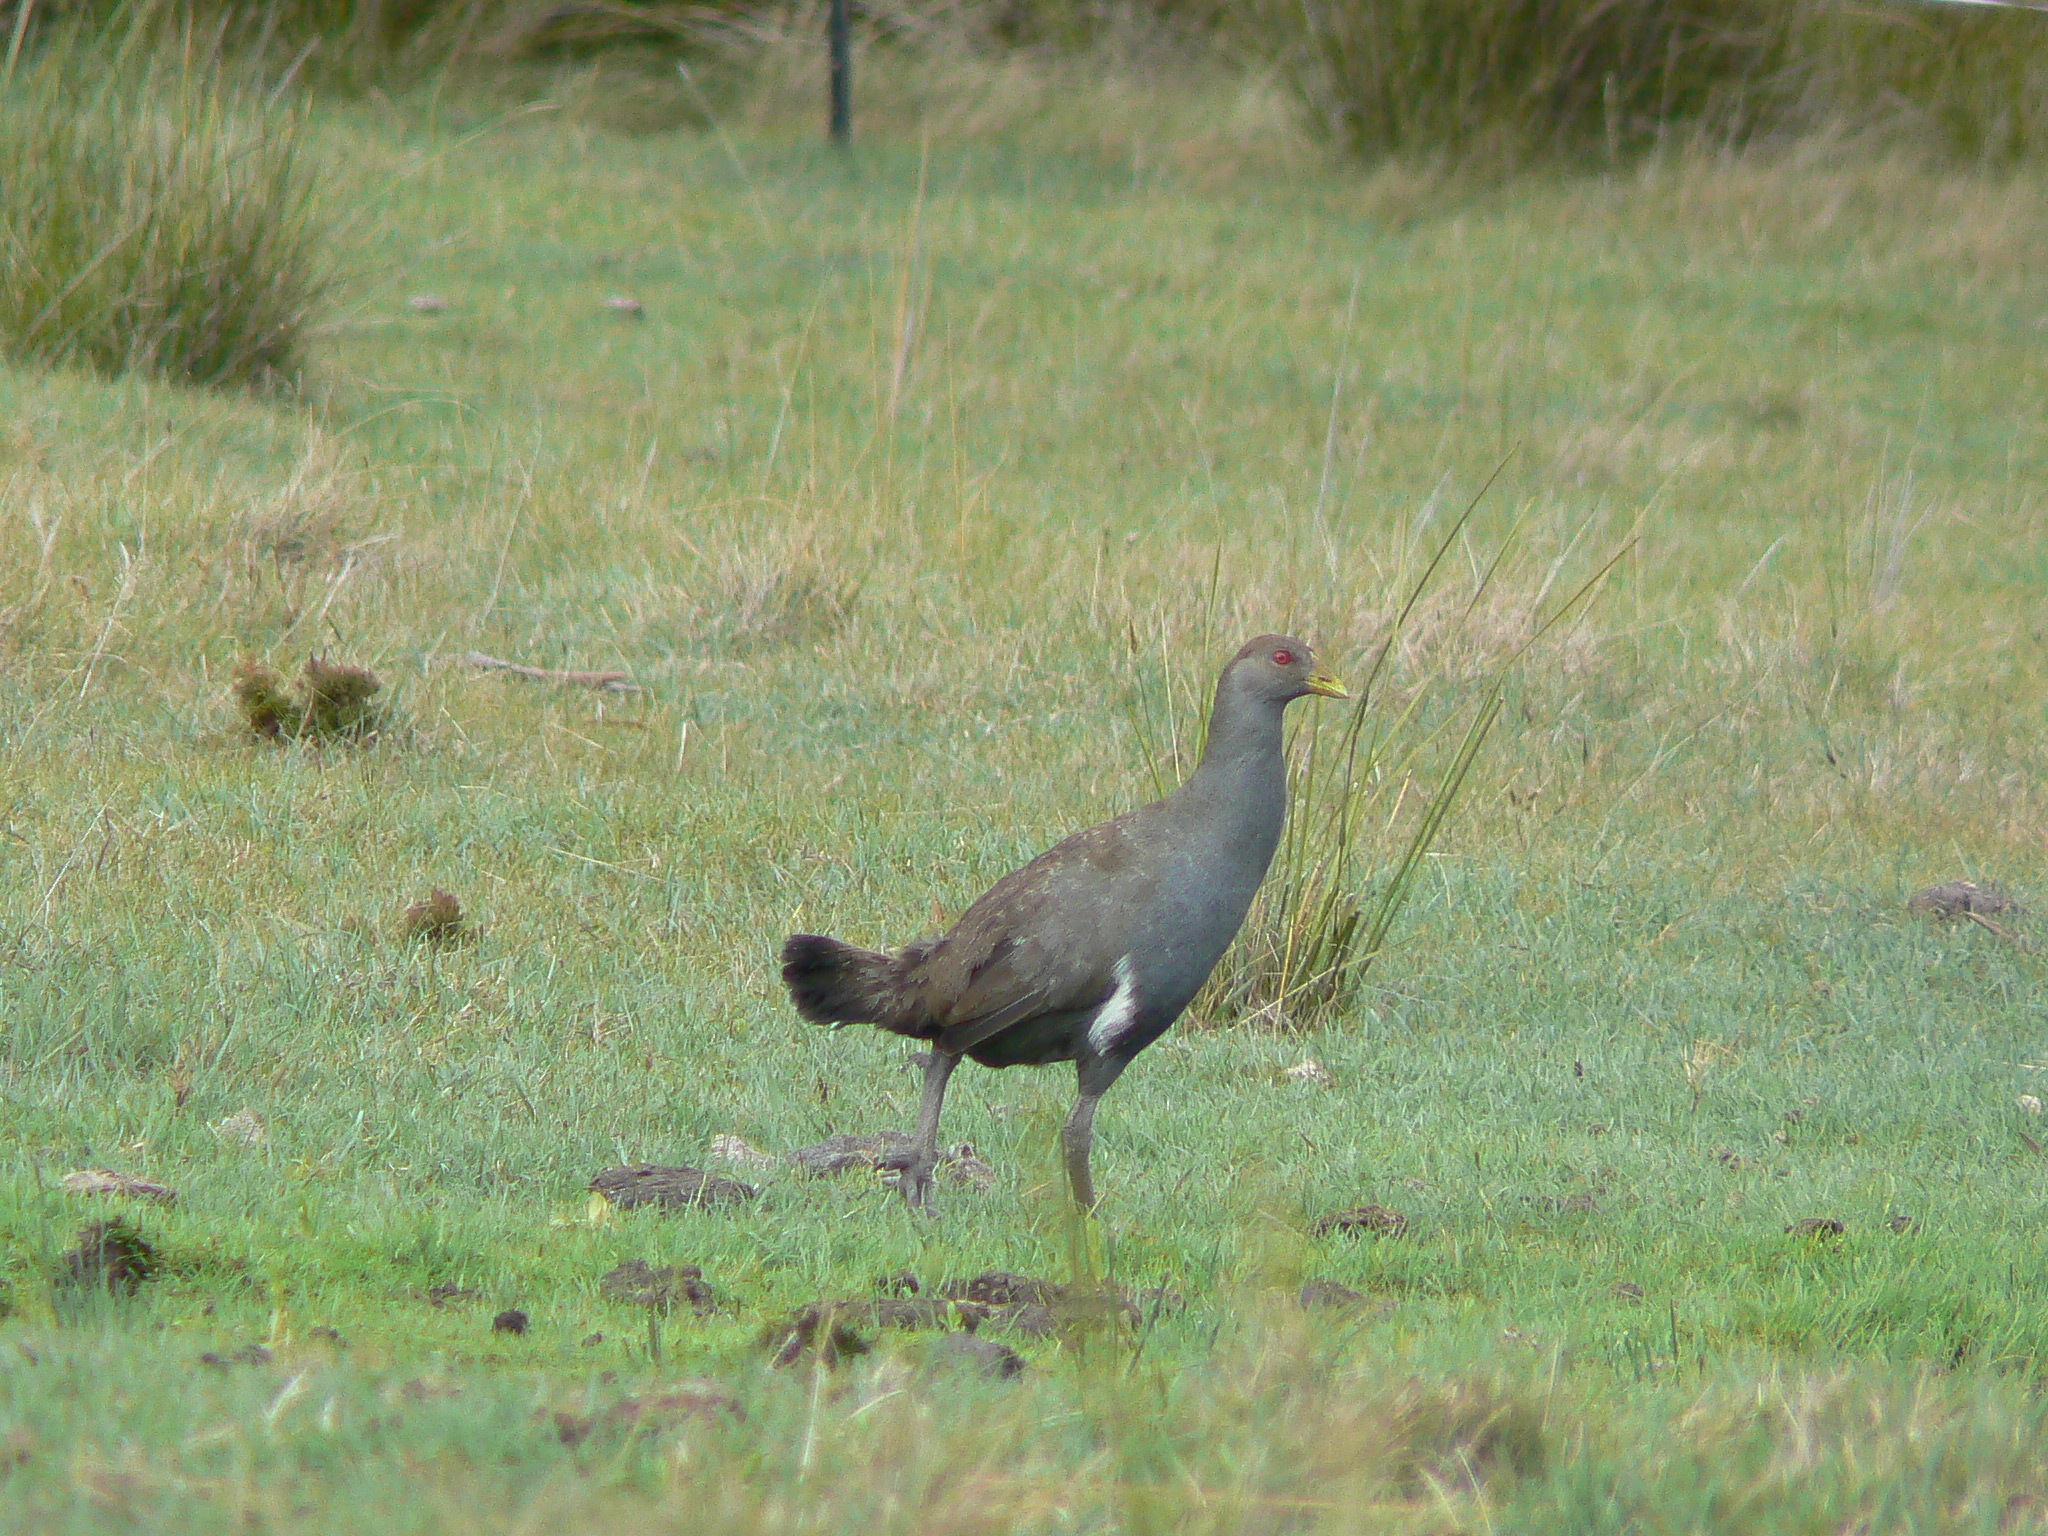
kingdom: Animalia
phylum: Chordata
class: Aves
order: Gruiformes
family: Rallidae
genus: Gallinula
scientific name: Gallinula mortierii
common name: Tasmanian nativehen
